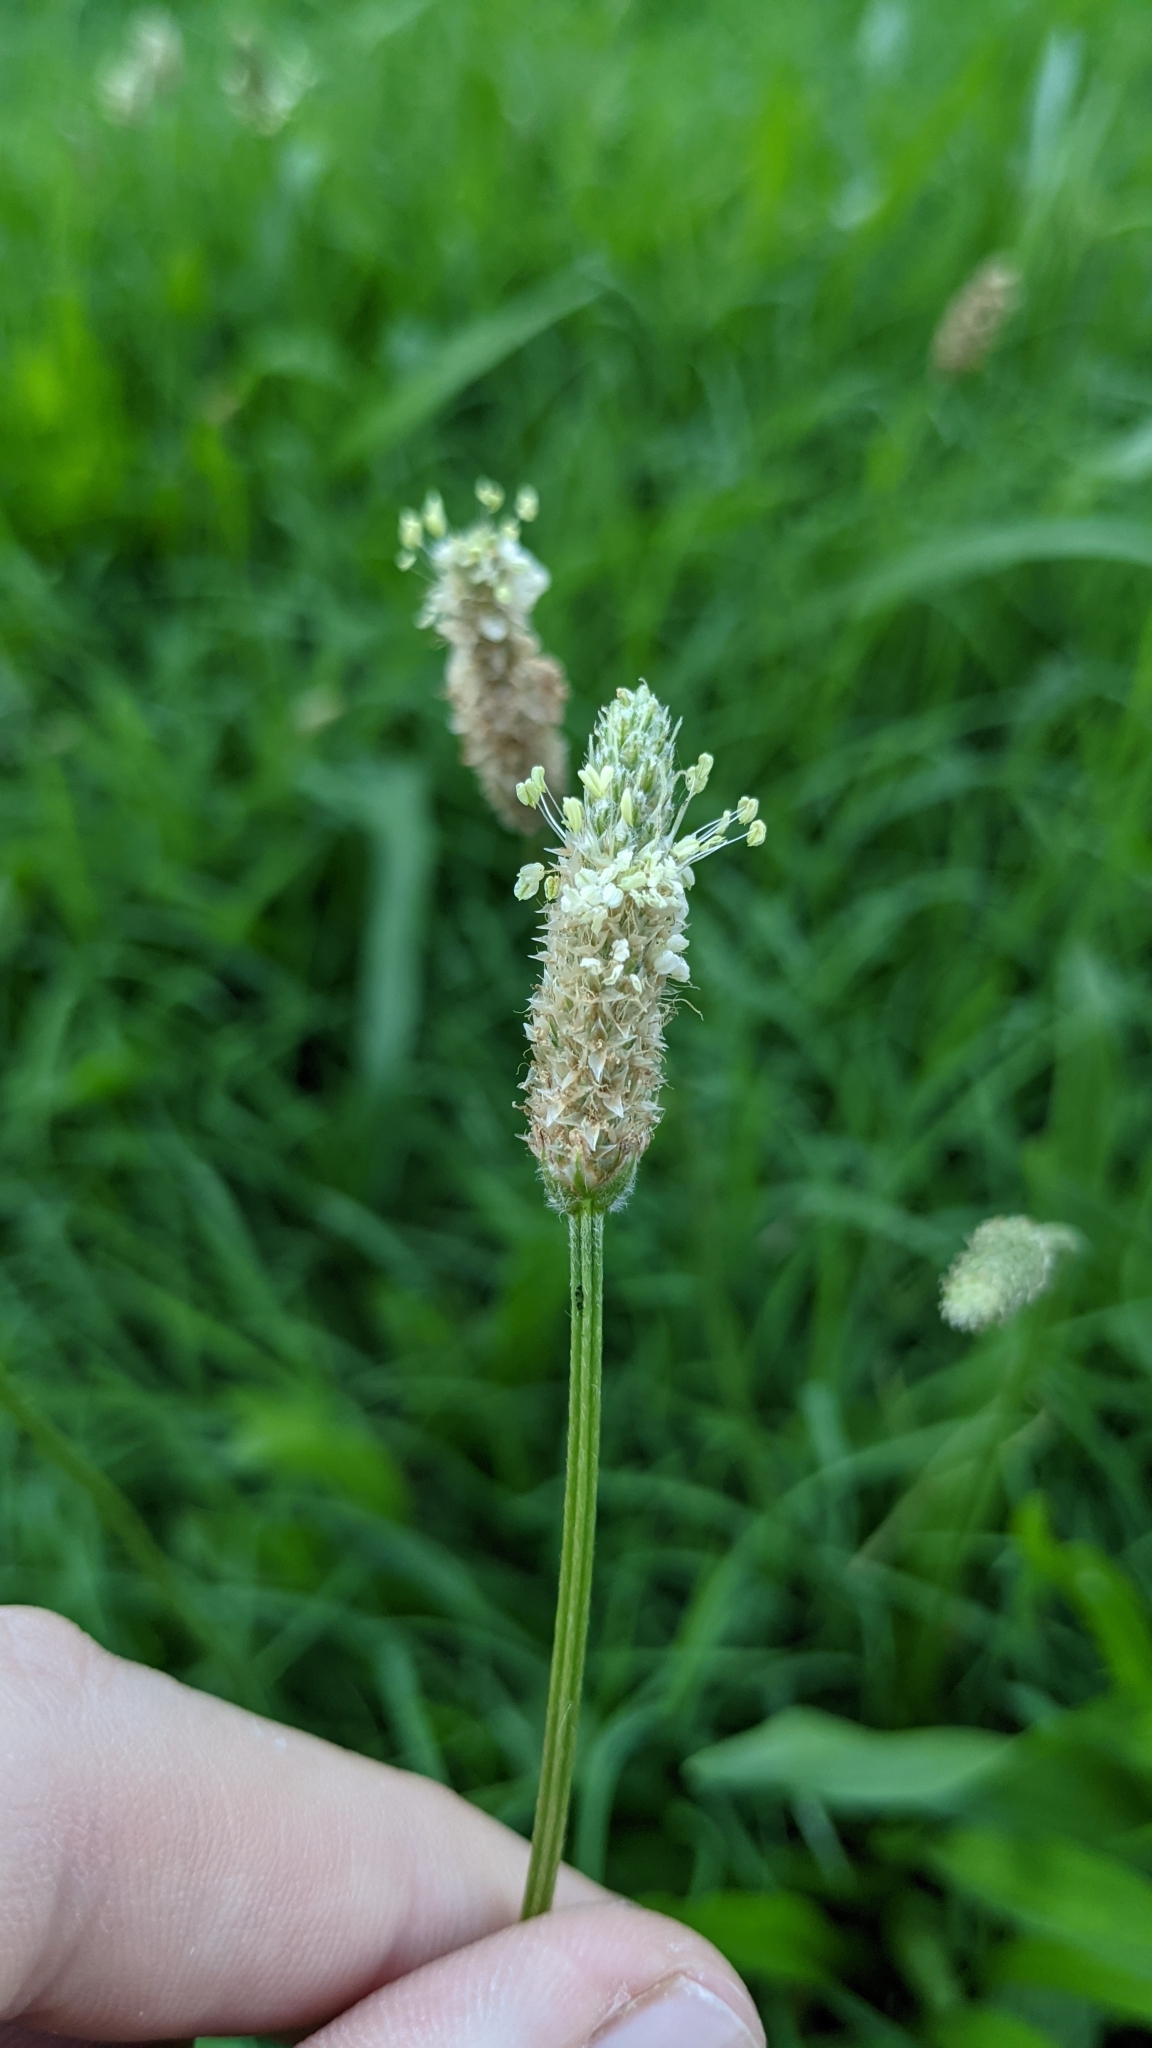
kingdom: Plantae
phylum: Tracheophyta
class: Magnoliopsida
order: Lamiales
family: Plantaginaceae
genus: Plantago
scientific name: Plantago lanceolata
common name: Ribwort plantain
